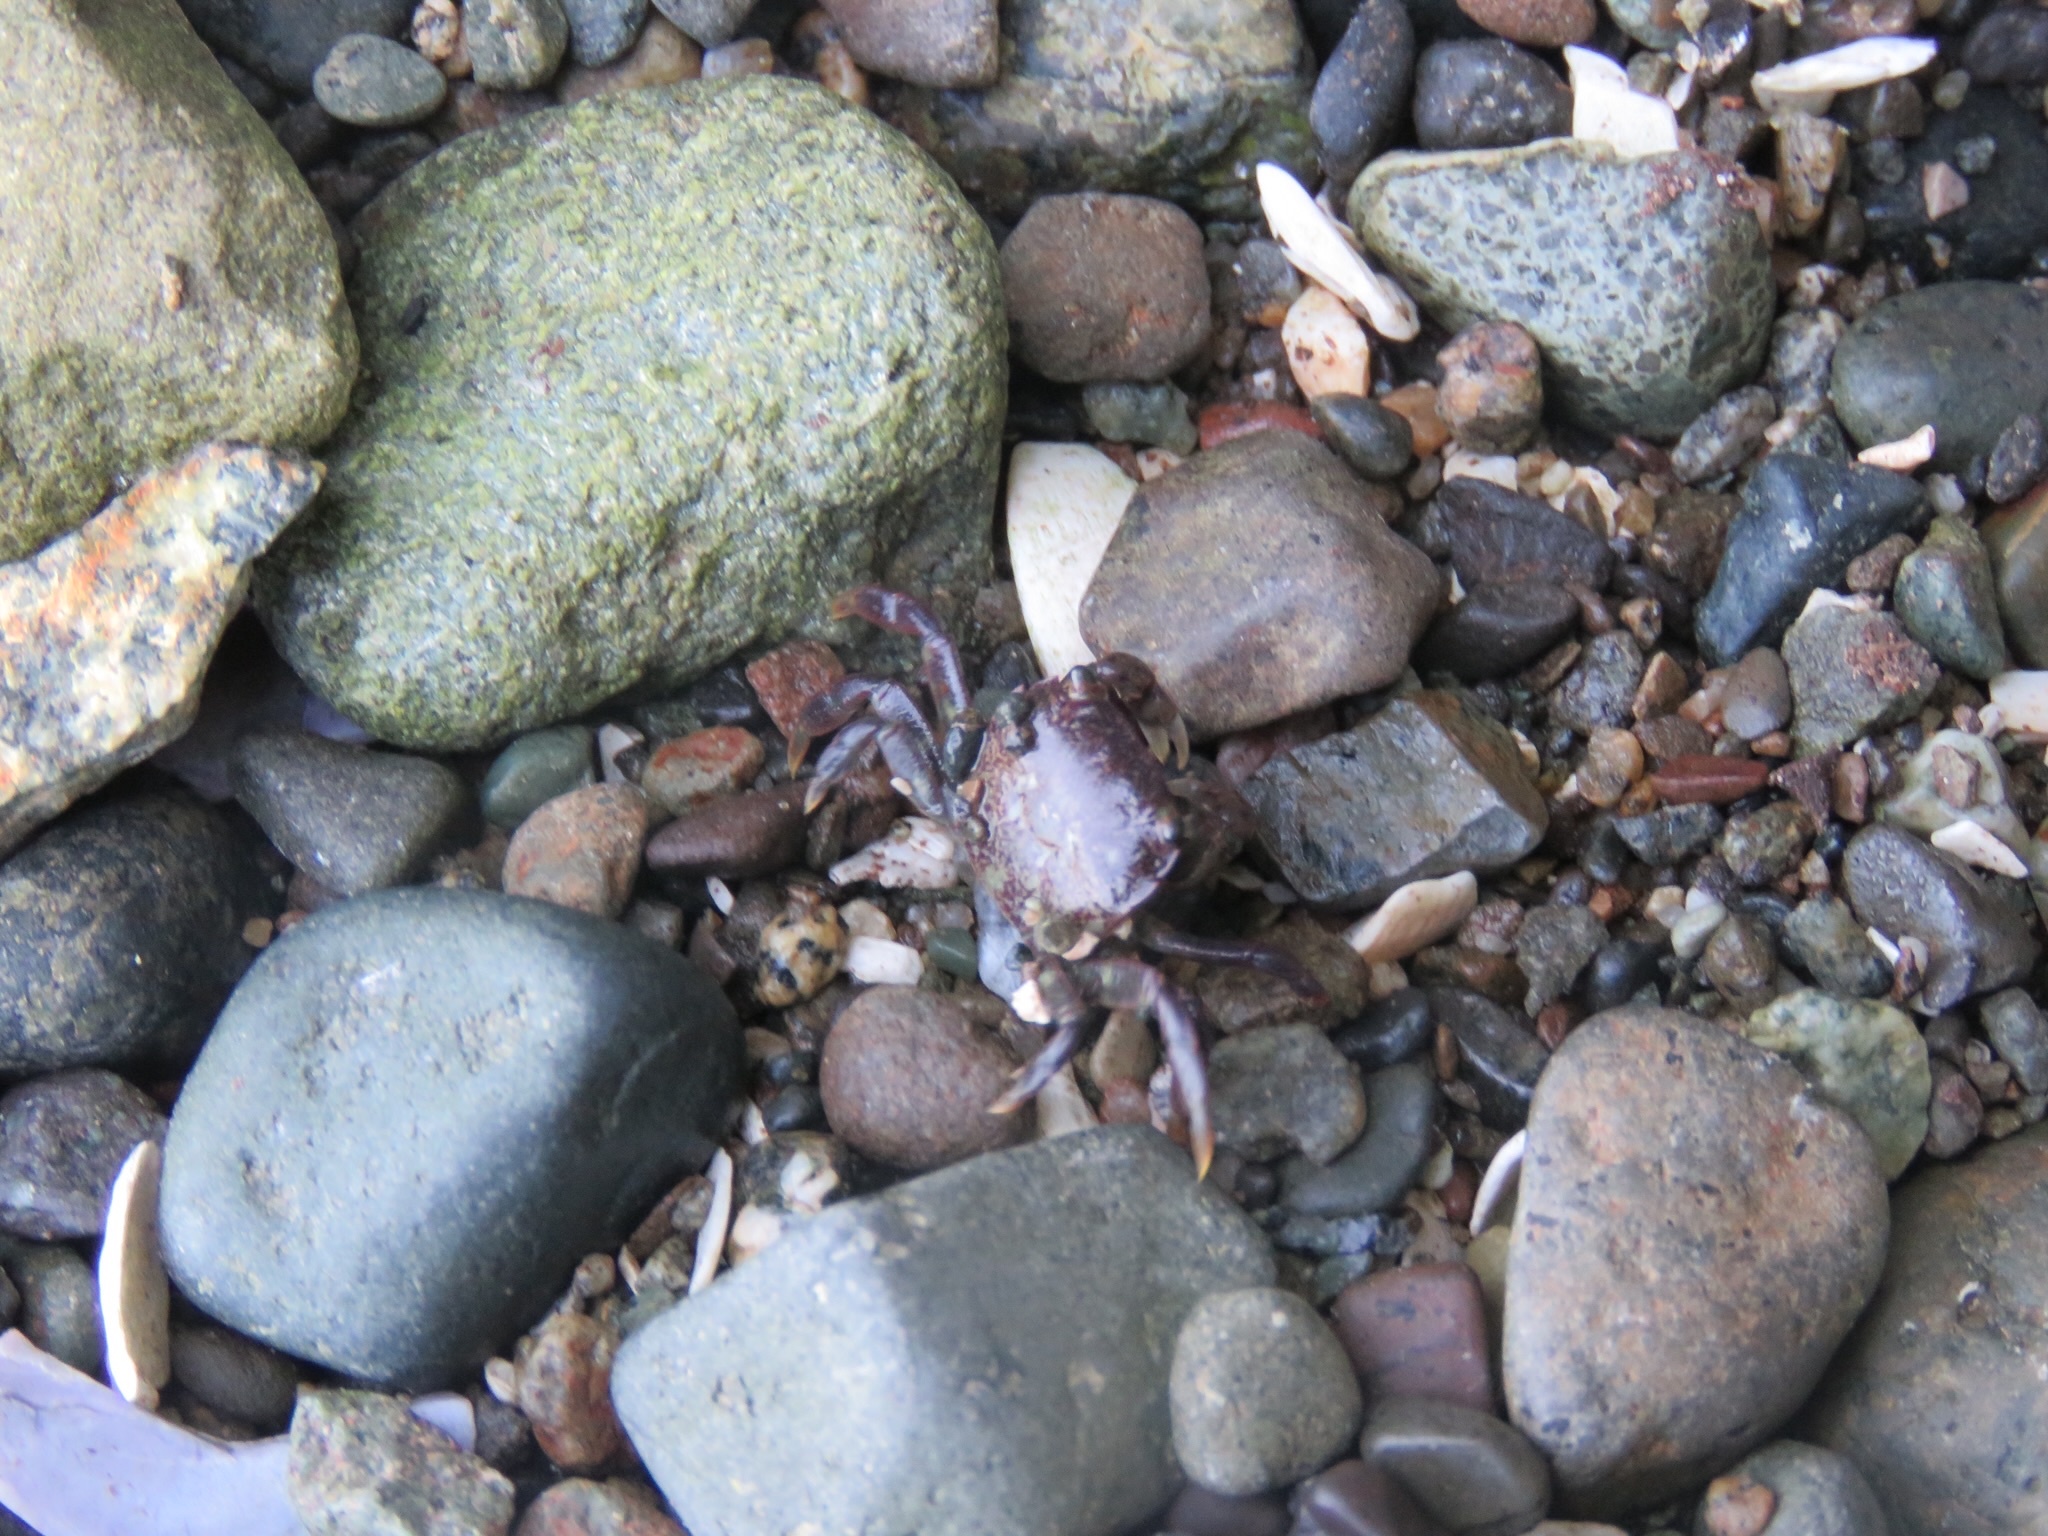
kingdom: Animalia
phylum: Arthropoda
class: Malacostraca
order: Decapoda
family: Varunidae
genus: Hemigrapsus
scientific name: Hemigrapsus nudus
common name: Purple shore crab
